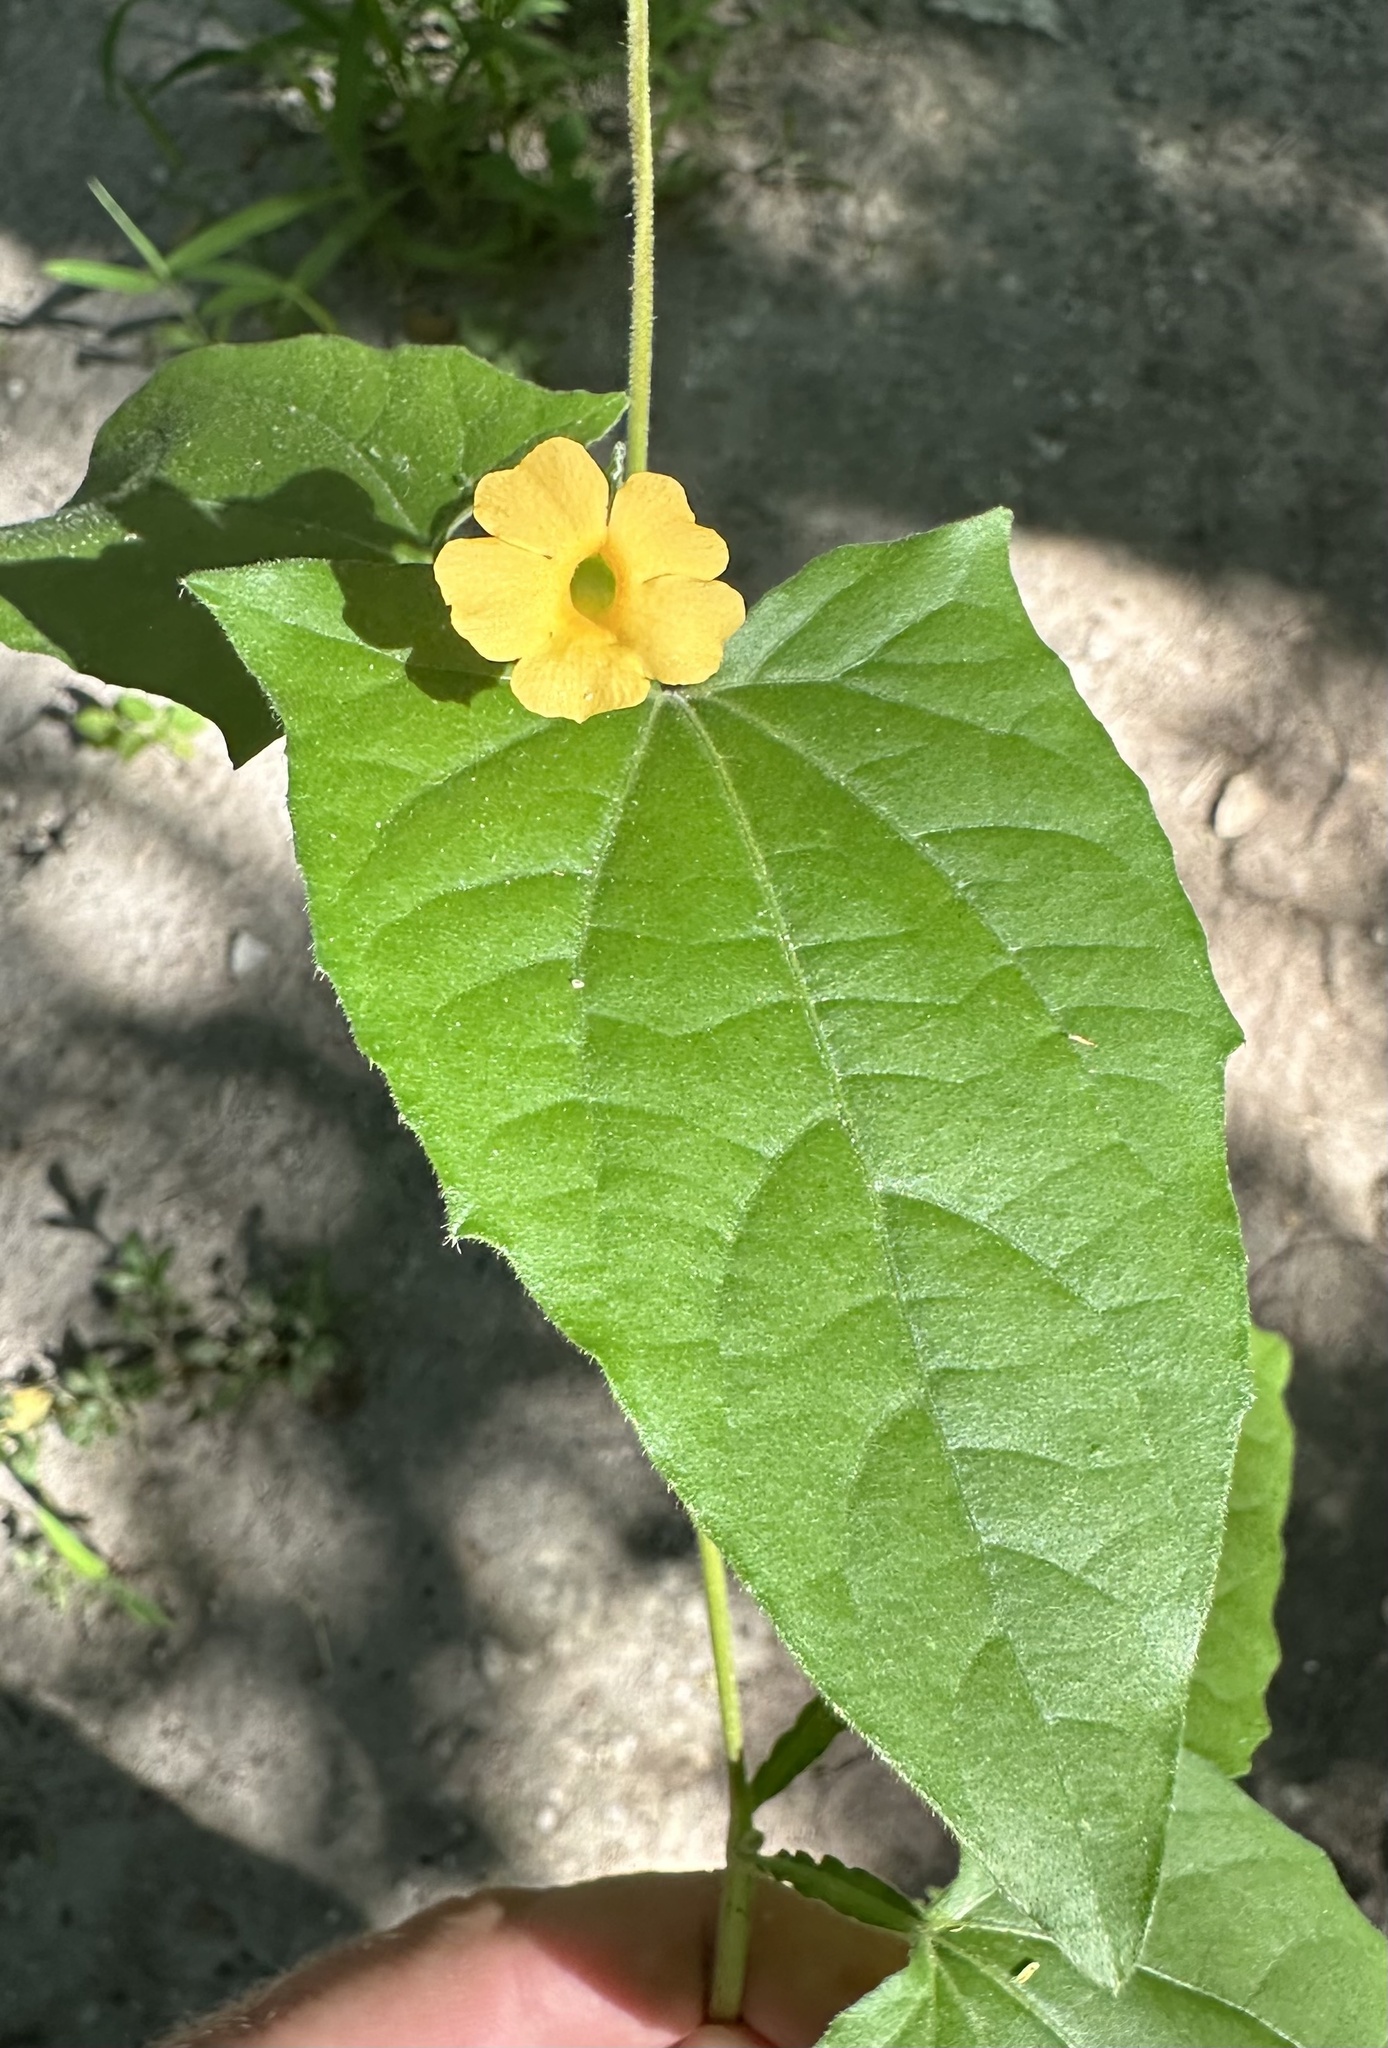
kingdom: Plantae
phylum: Tracheophyta
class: Magnoliopsida
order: Lamiales
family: Acanthaceae
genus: Thunbergia
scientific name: Thunbergia reticulata
